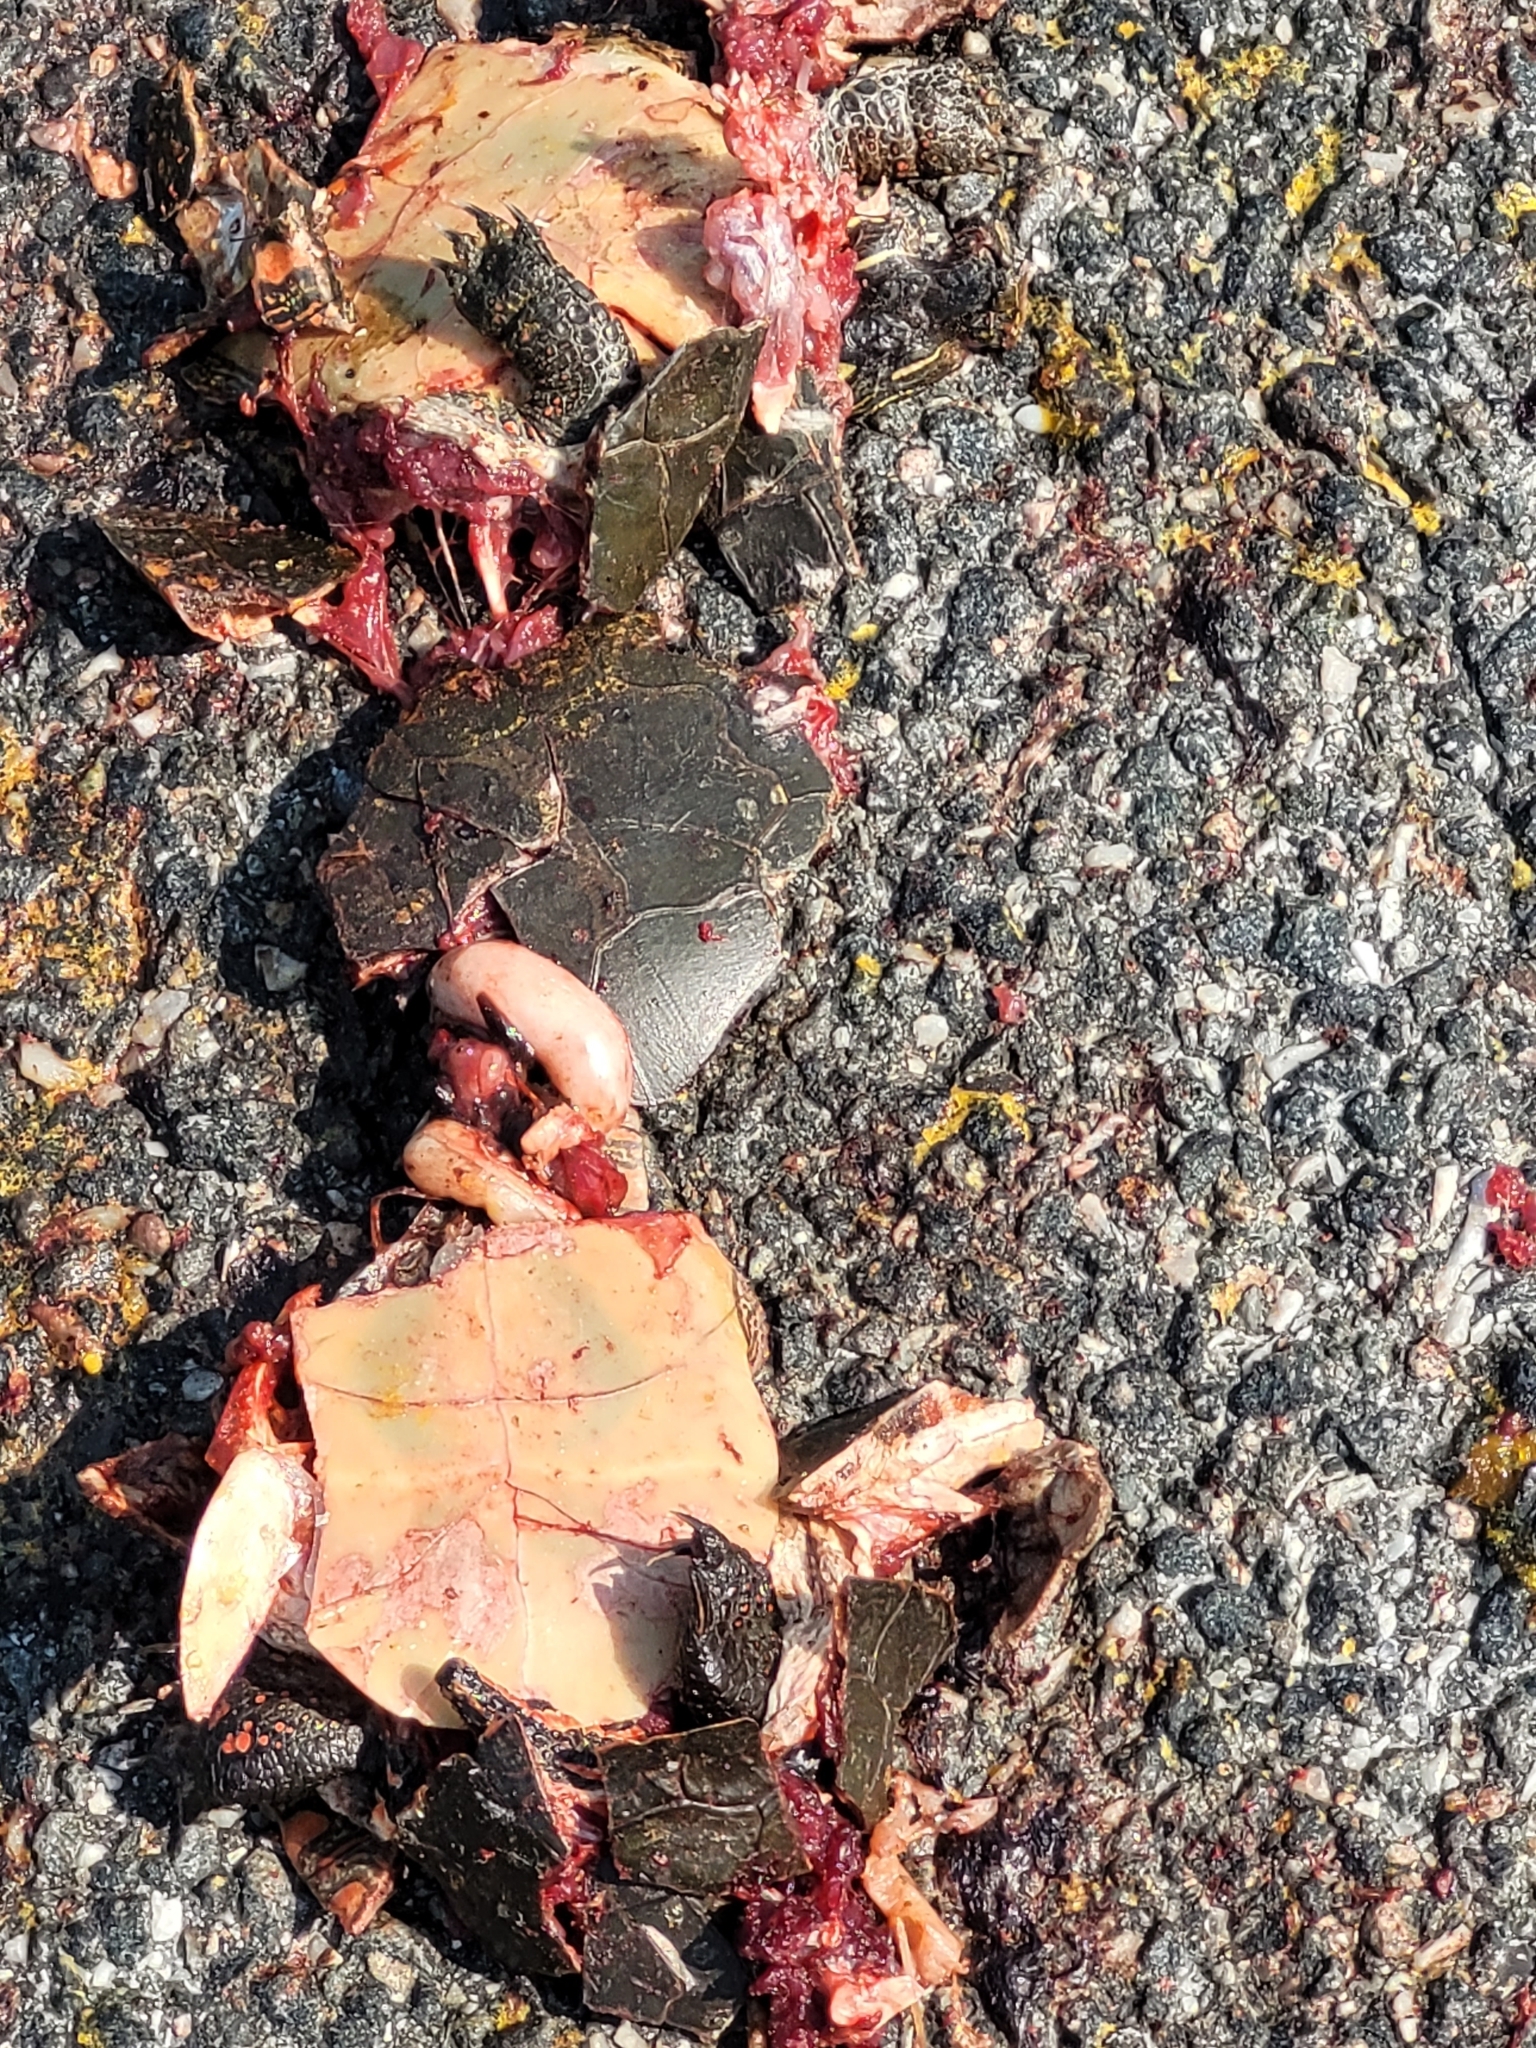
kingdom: Animalia
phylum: Chordata
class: Testudines
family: Emydidae
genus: Chrysemys
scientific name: Chrysemys picta
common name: Painted turtle
